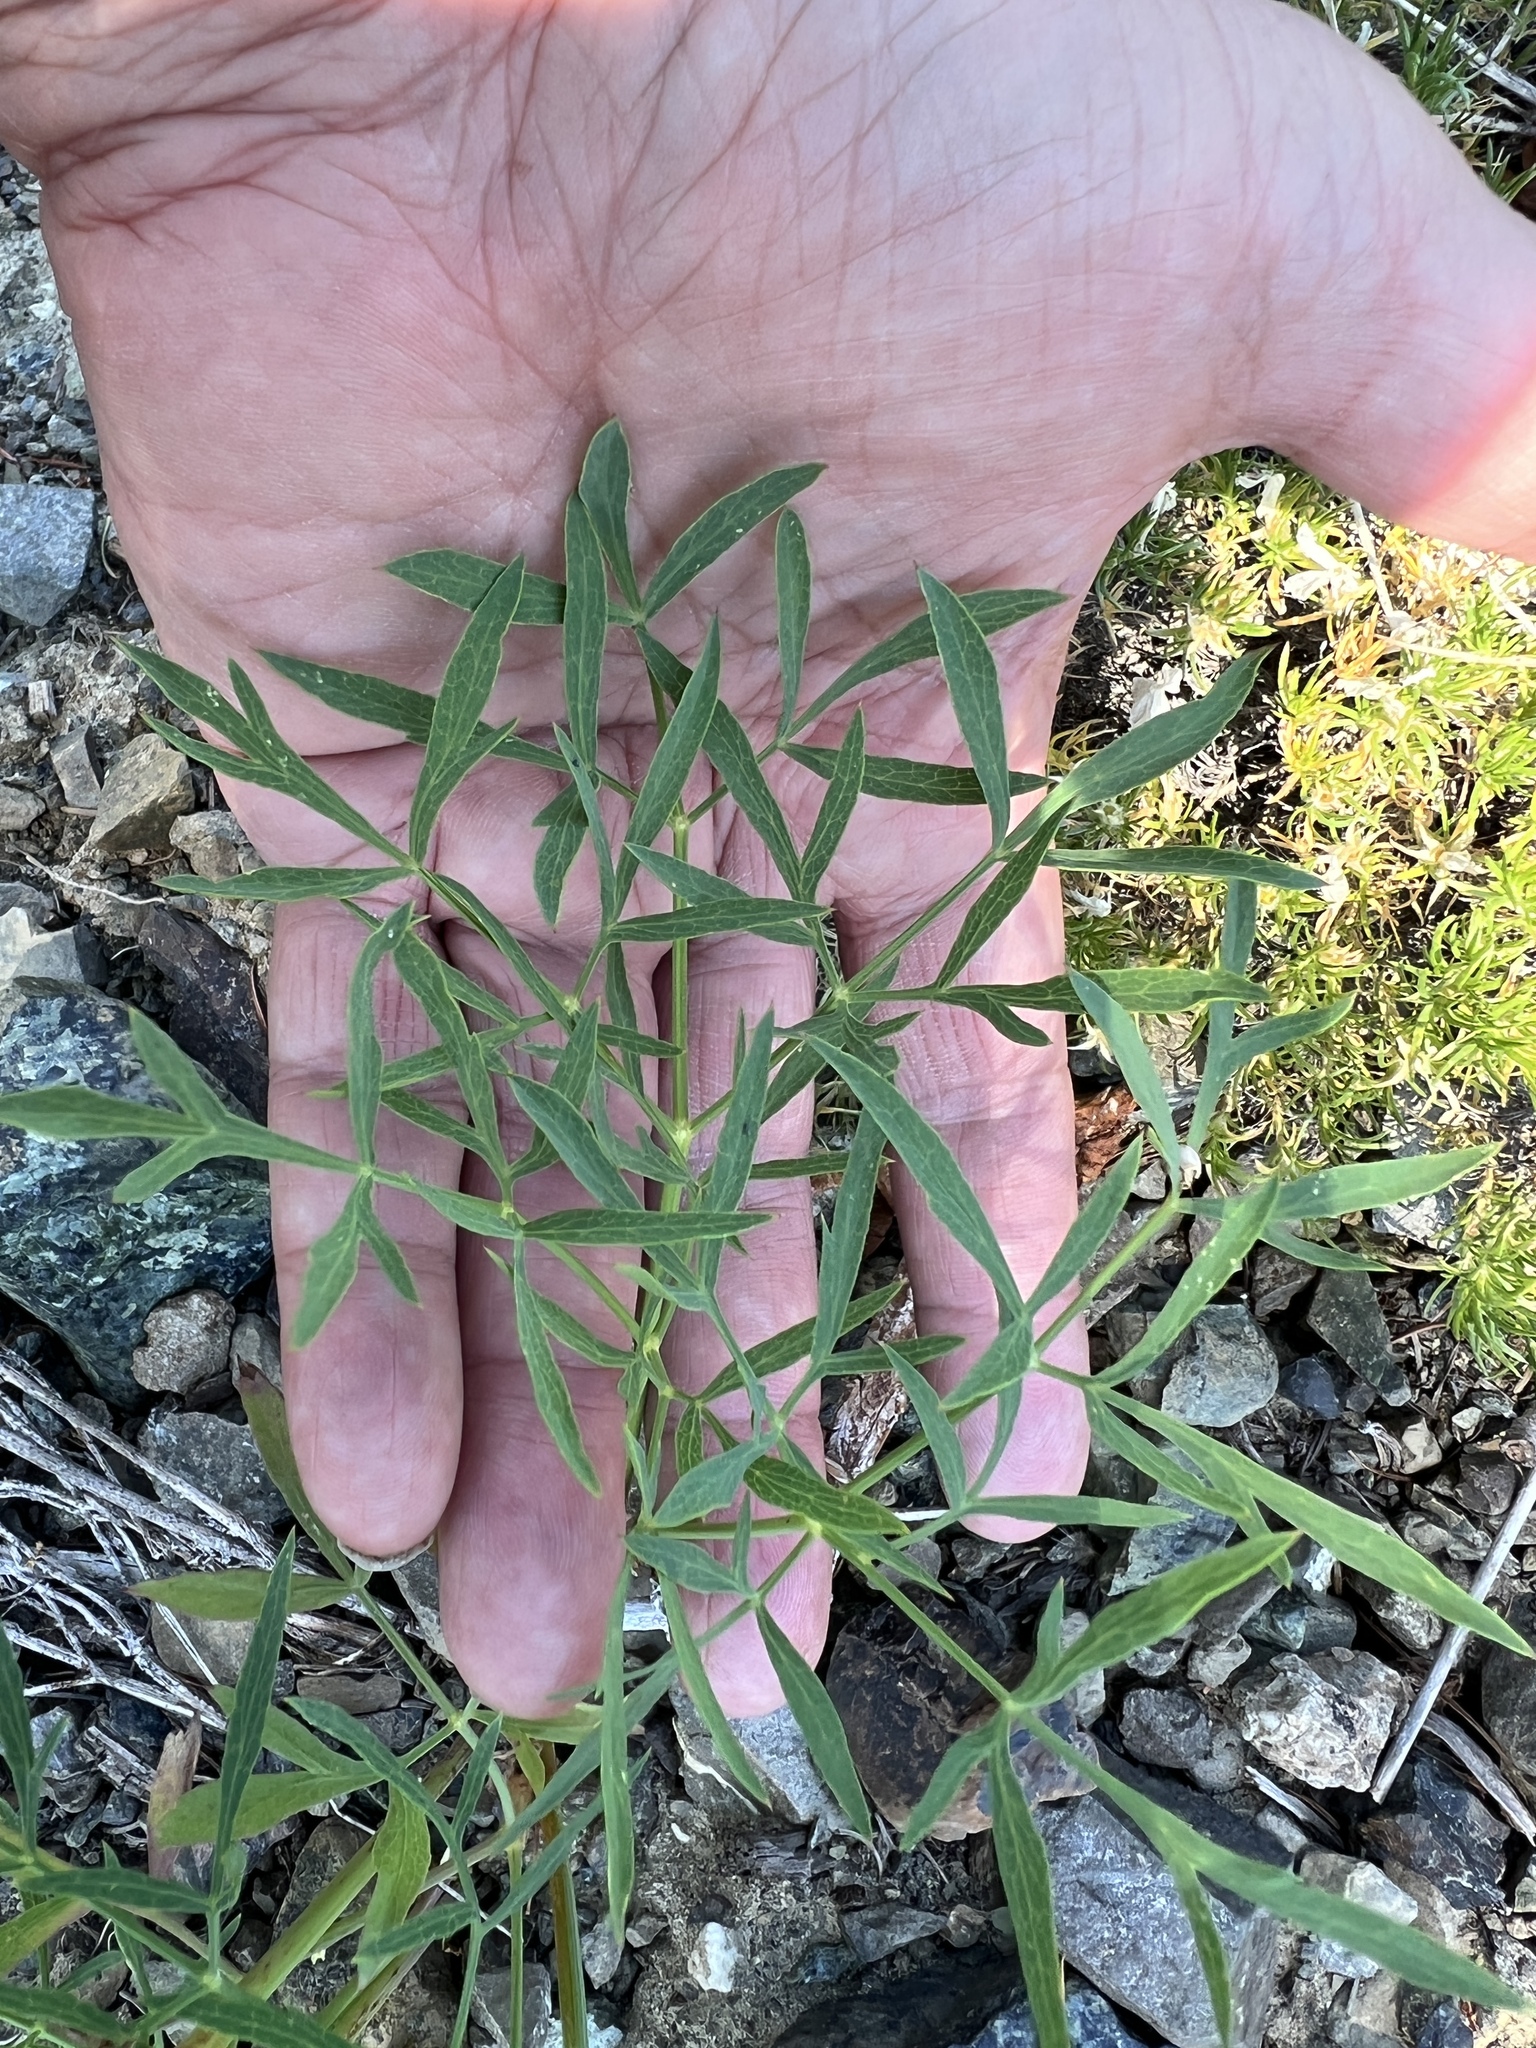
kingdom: Plantae
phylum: Tracheophyta
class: Magnoliopsida
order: Apiales
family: Apiaceae
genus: Lomatium
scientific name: Lomatium brandegeei
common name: Brandegee's desert-parsley
